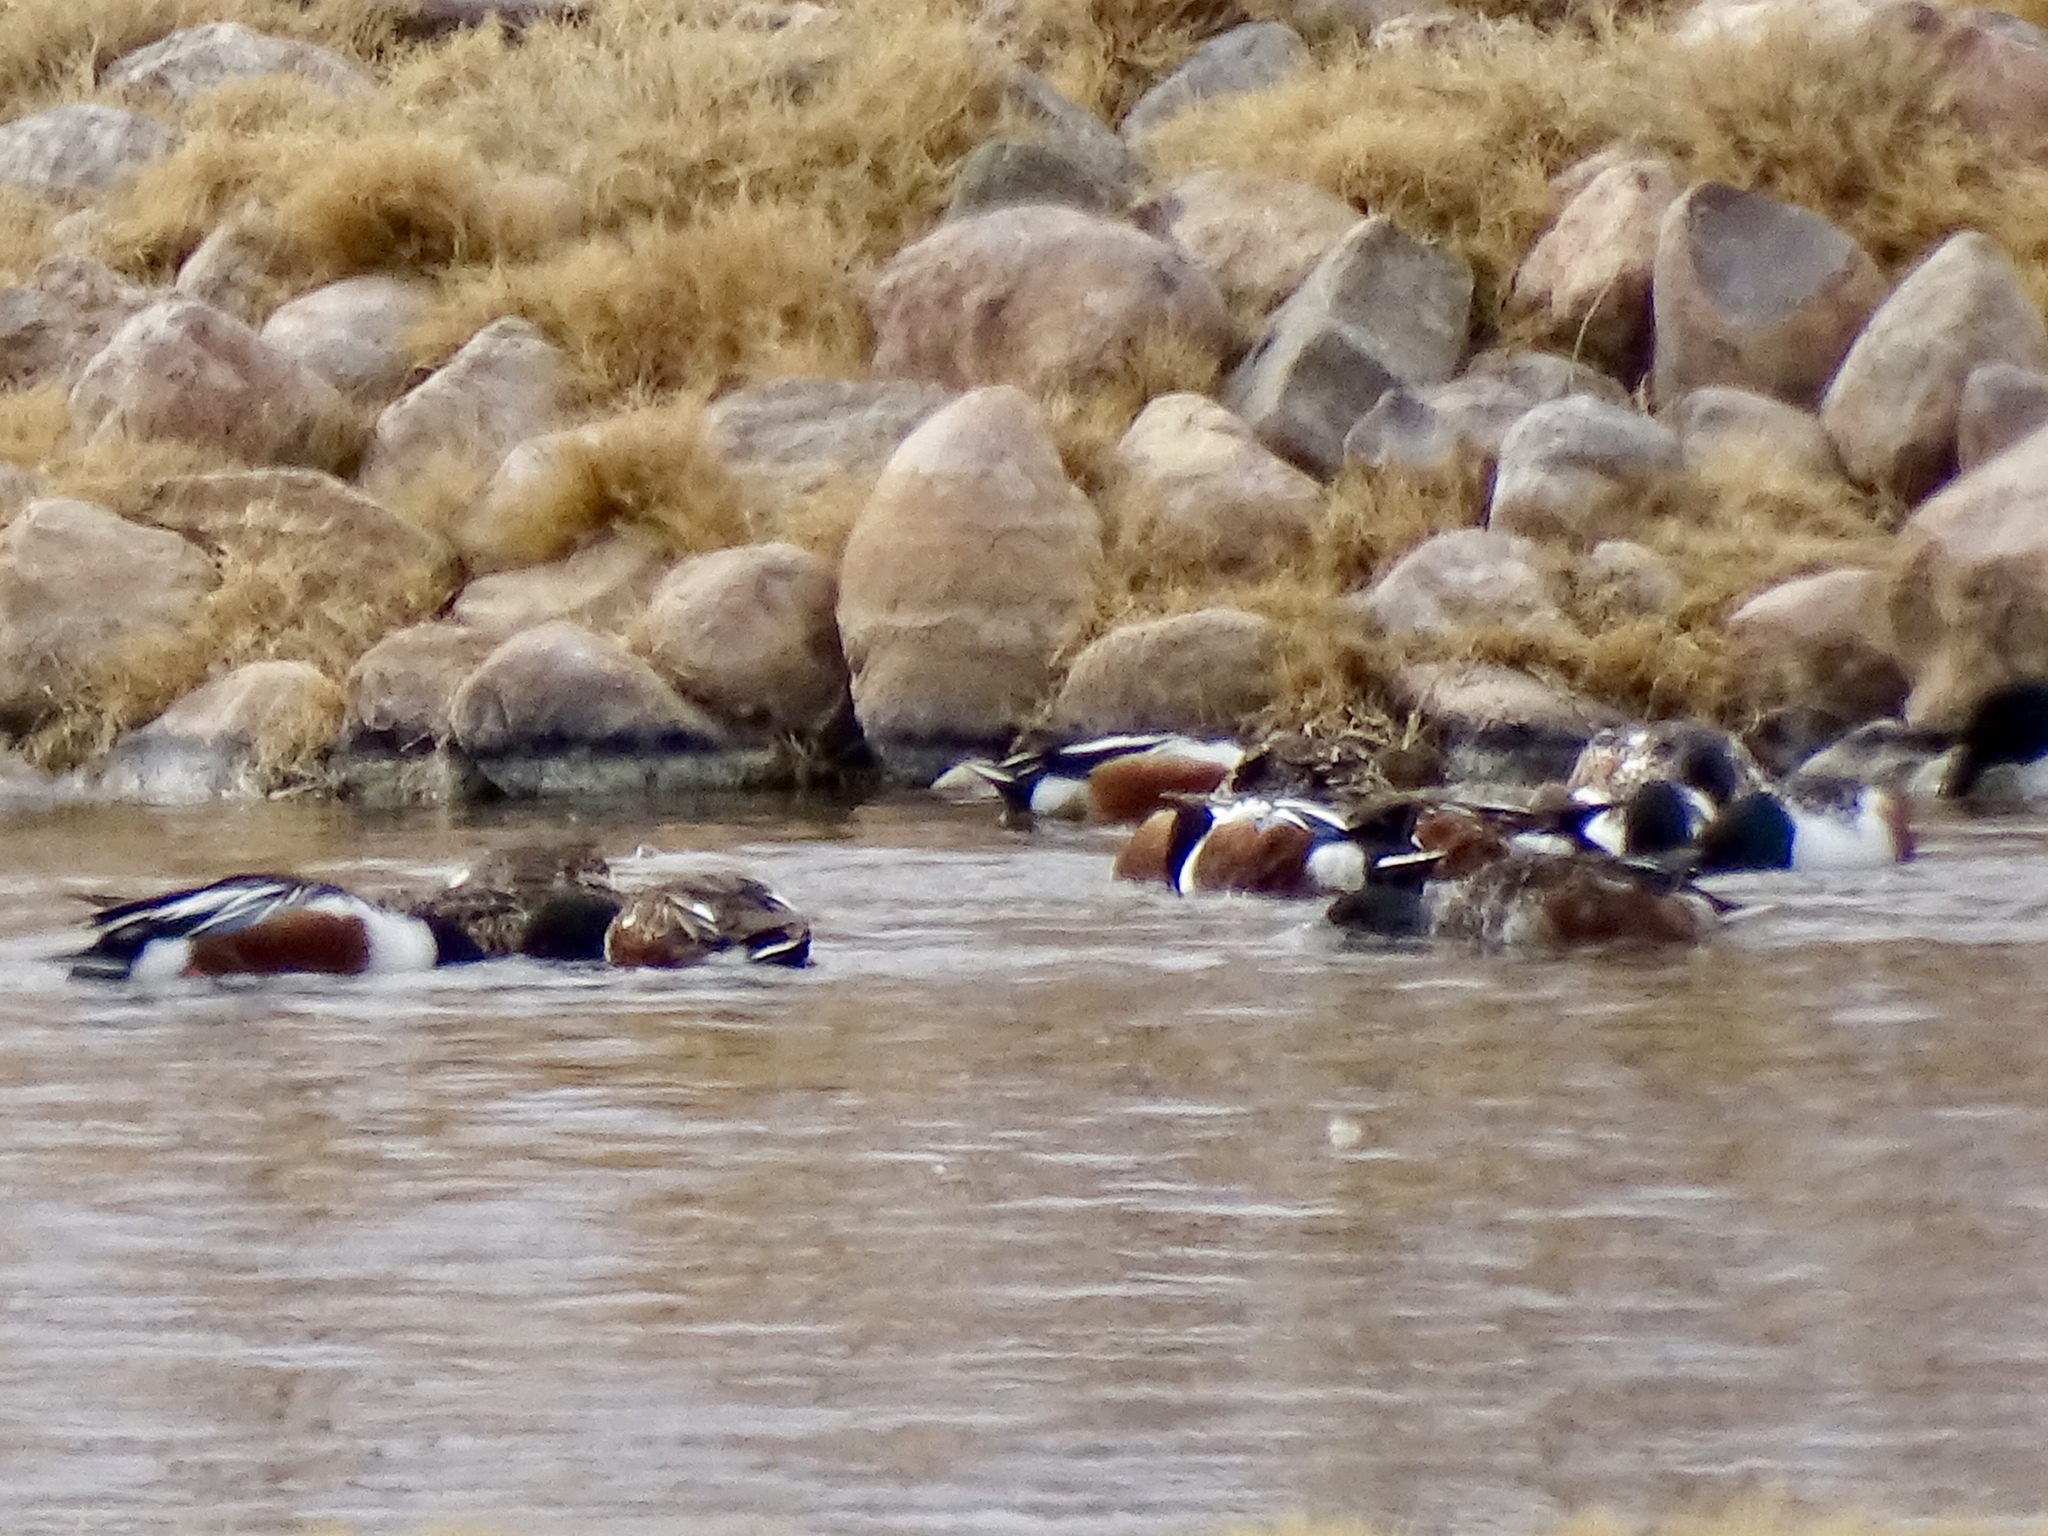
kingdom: Animalia
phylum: Chordata
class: Aves
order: Anseriformes
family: Anatidae
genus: Spatula
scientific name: Spatula clypeata
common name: Northern shoveler
